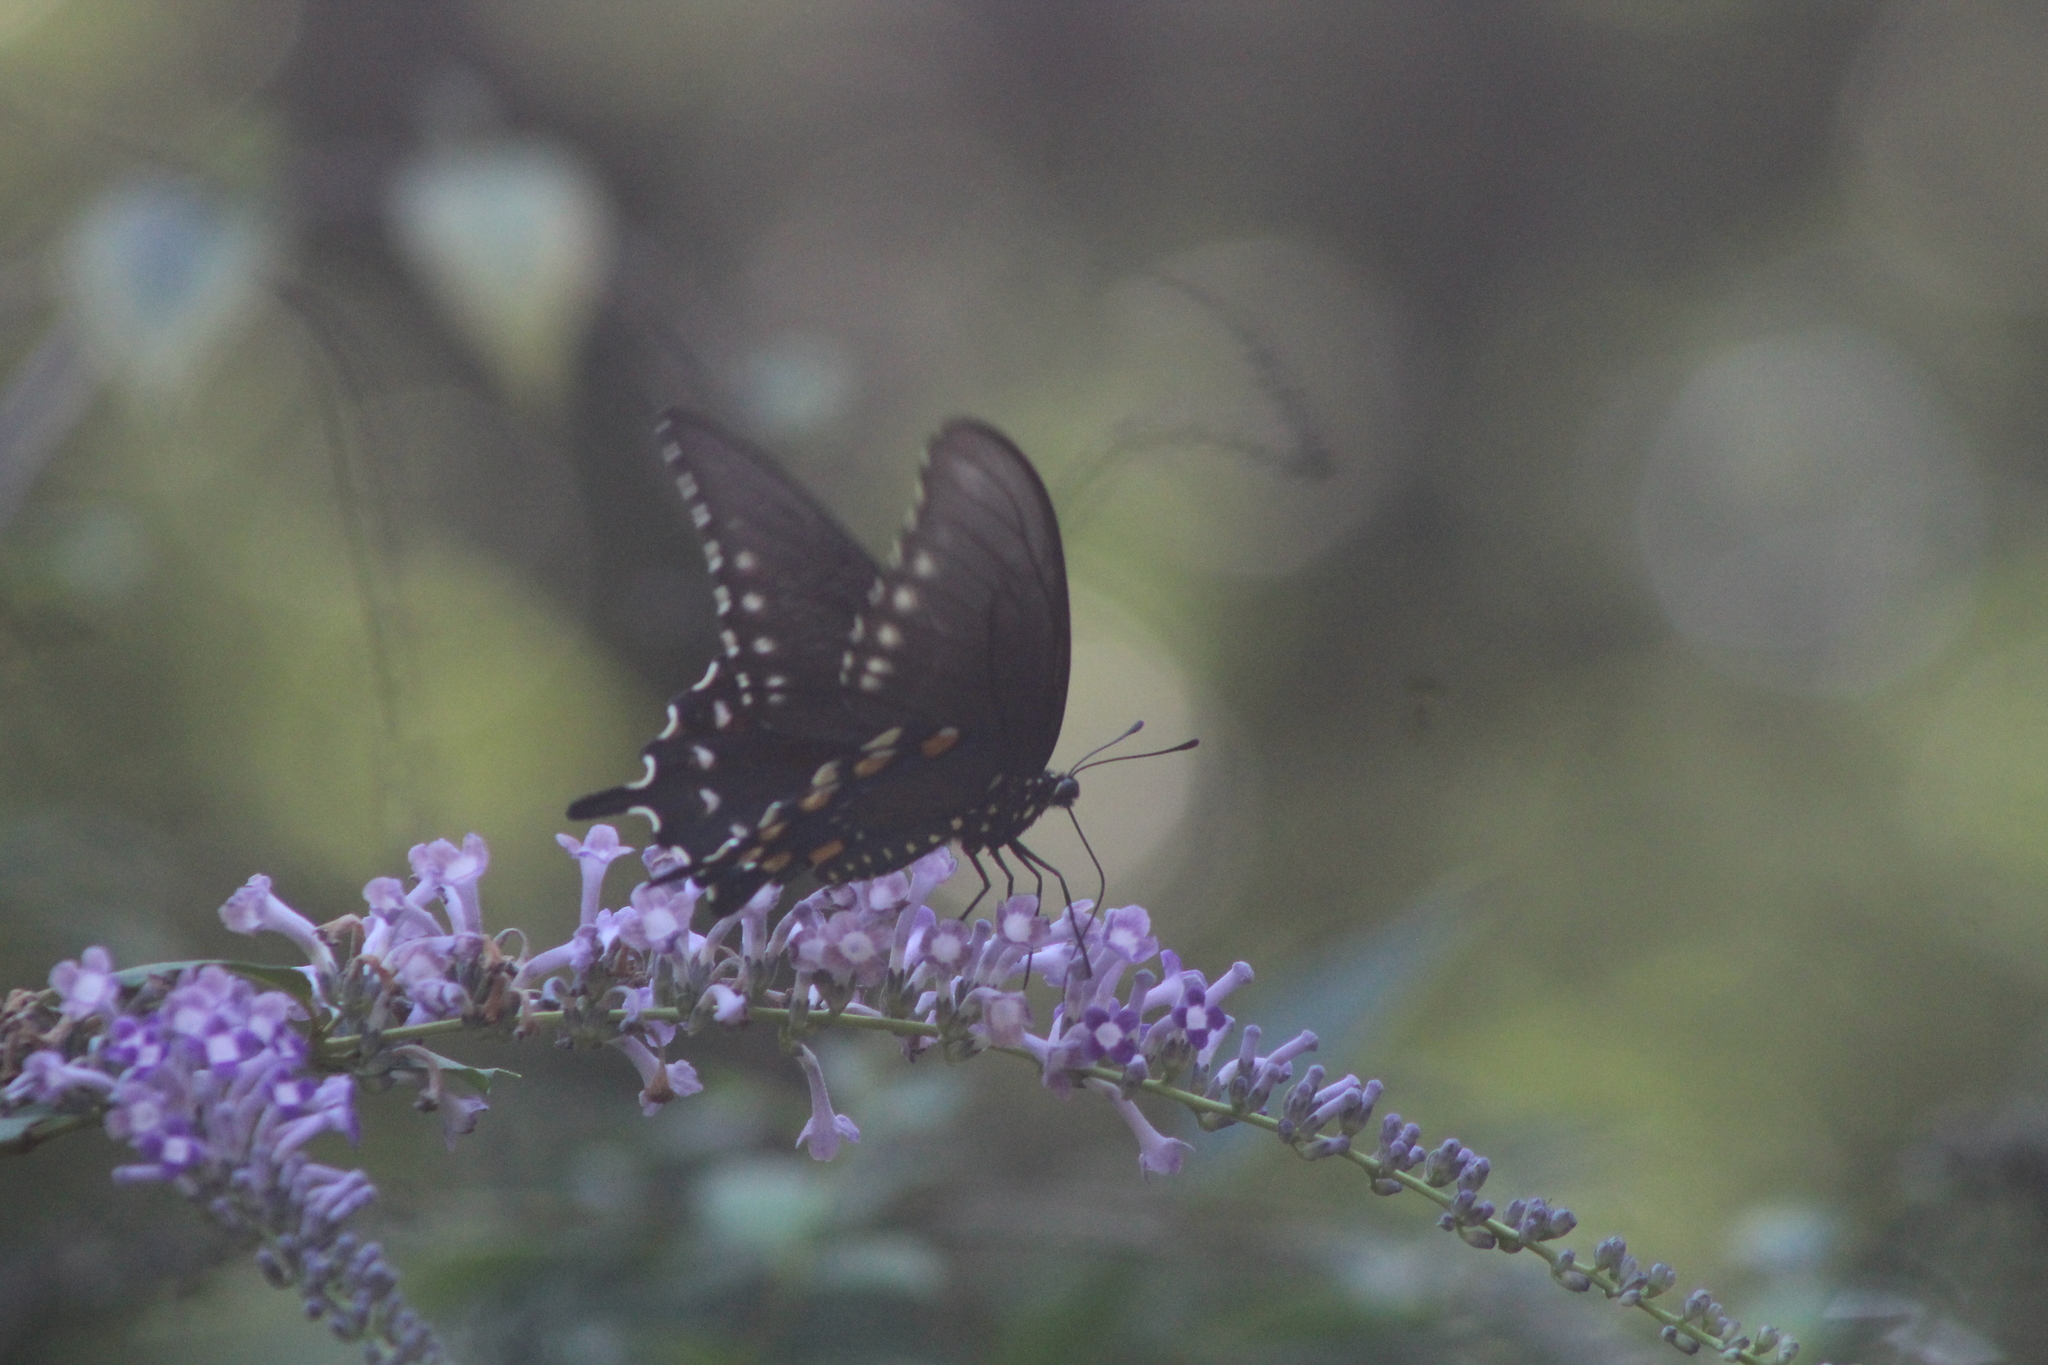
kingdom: Animalia
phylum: Arthropoda
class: Insecta
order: Lepidoptera
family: Papilionidae
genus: Battus
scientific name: Battus philenor
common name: Pipevine swallowtail
